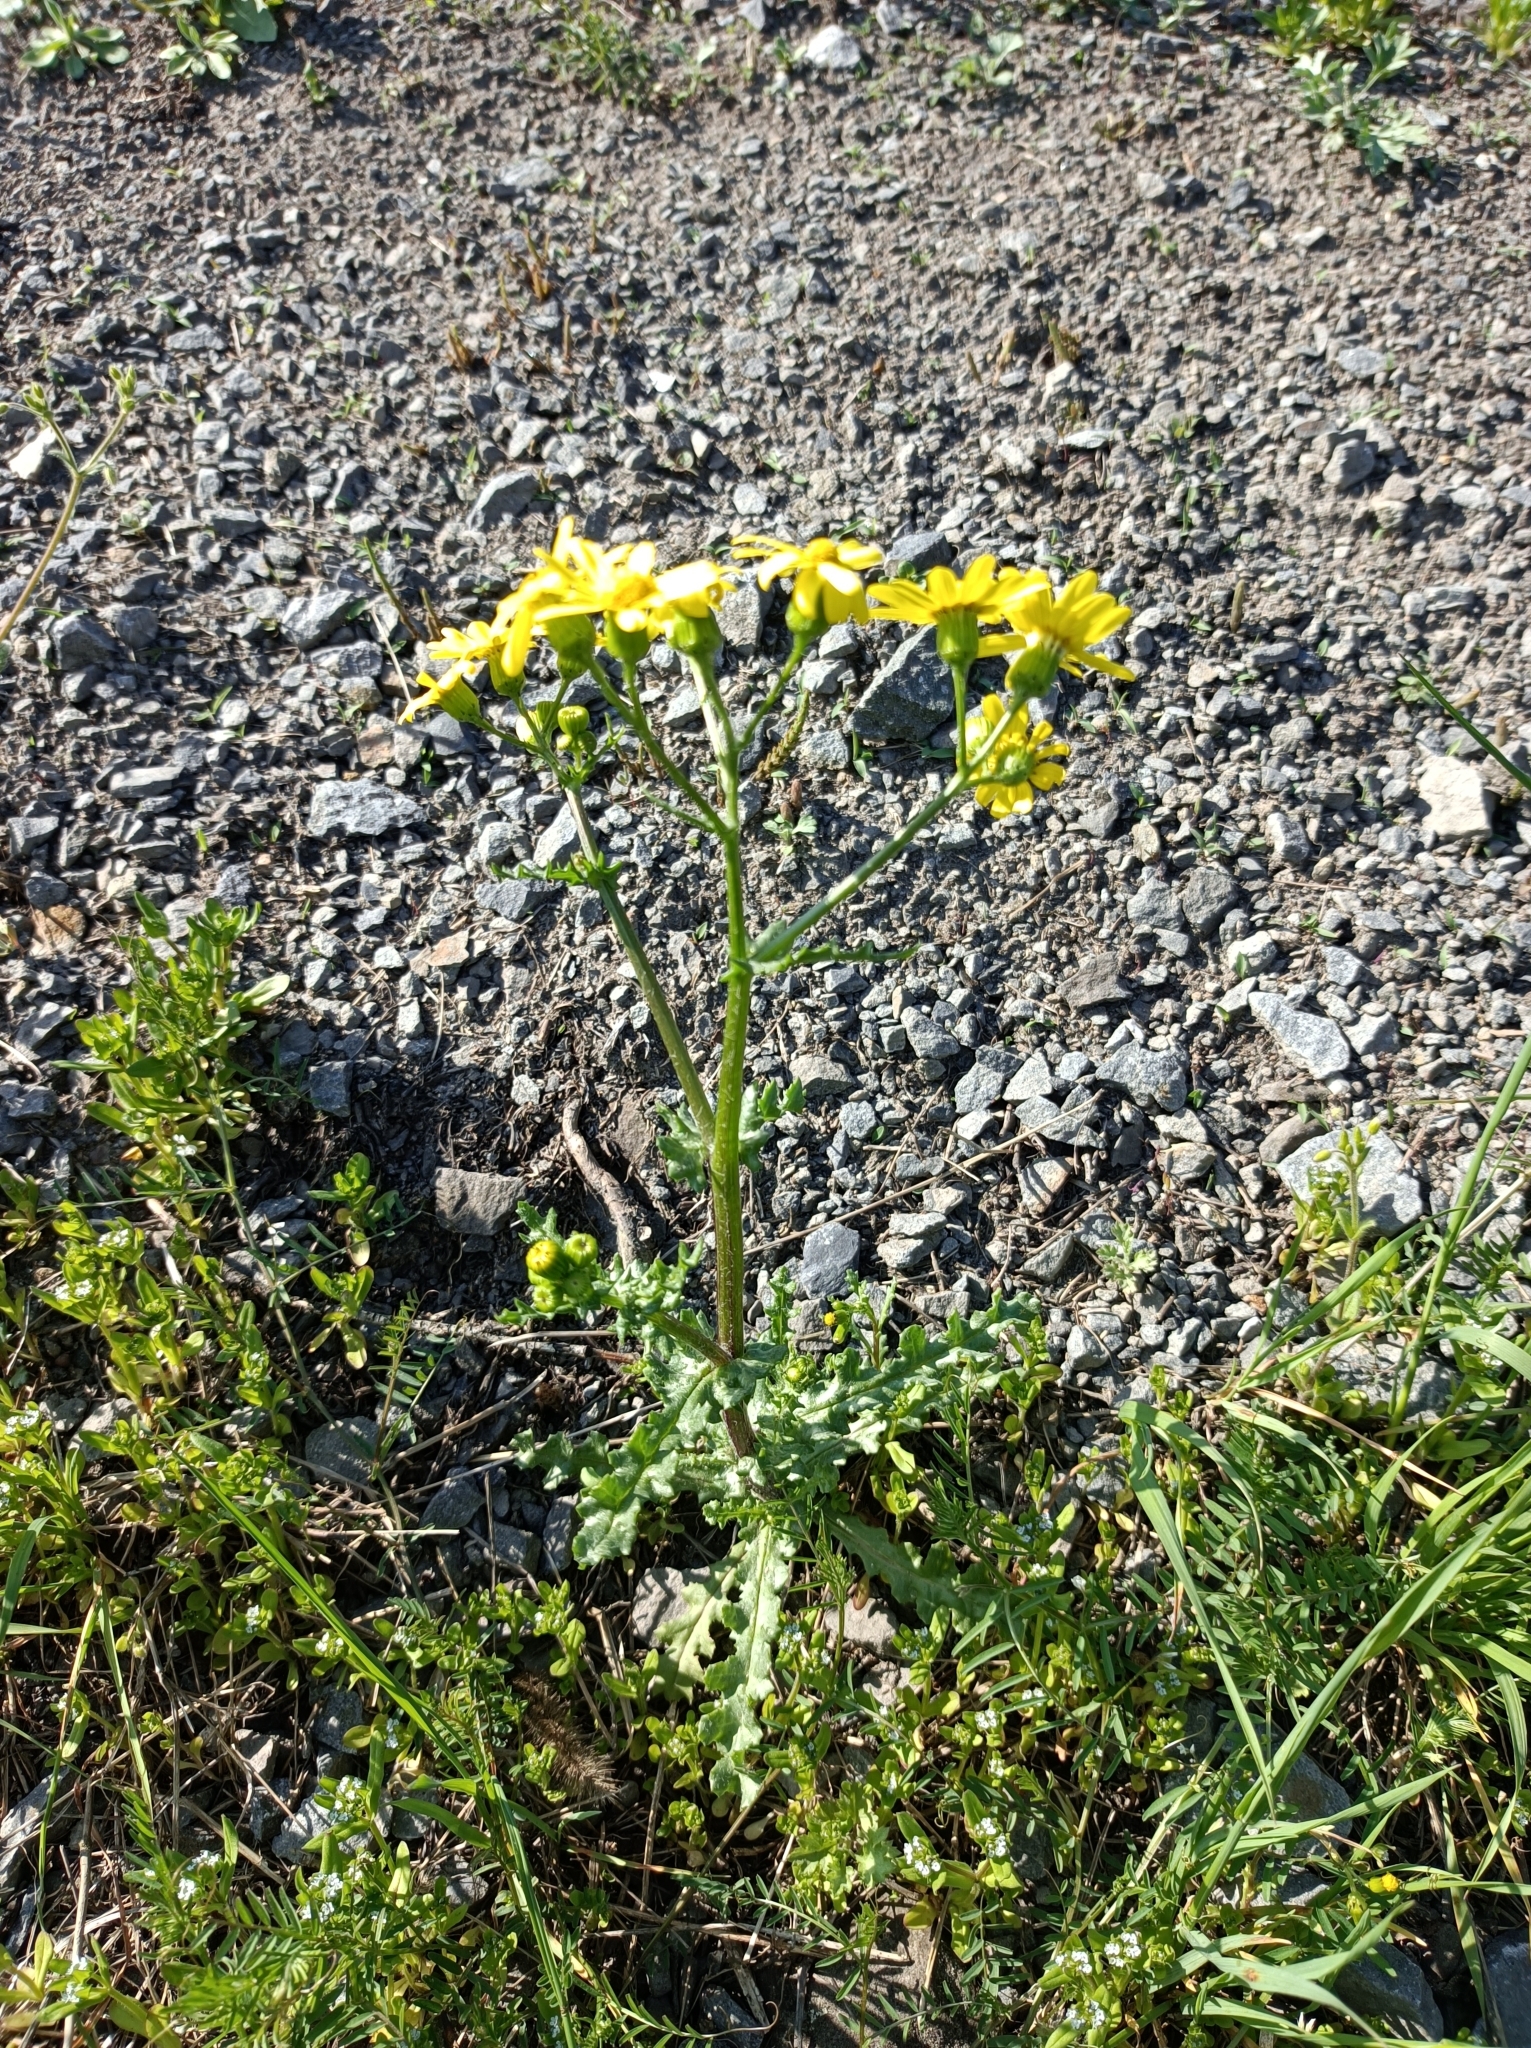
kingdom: Plantae
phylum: Tracheophyta
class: Magnoliopsida
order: Asterales
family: Asteraceae
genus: Senecio
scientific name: Senecio vernalis
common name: Eastern groundsel
